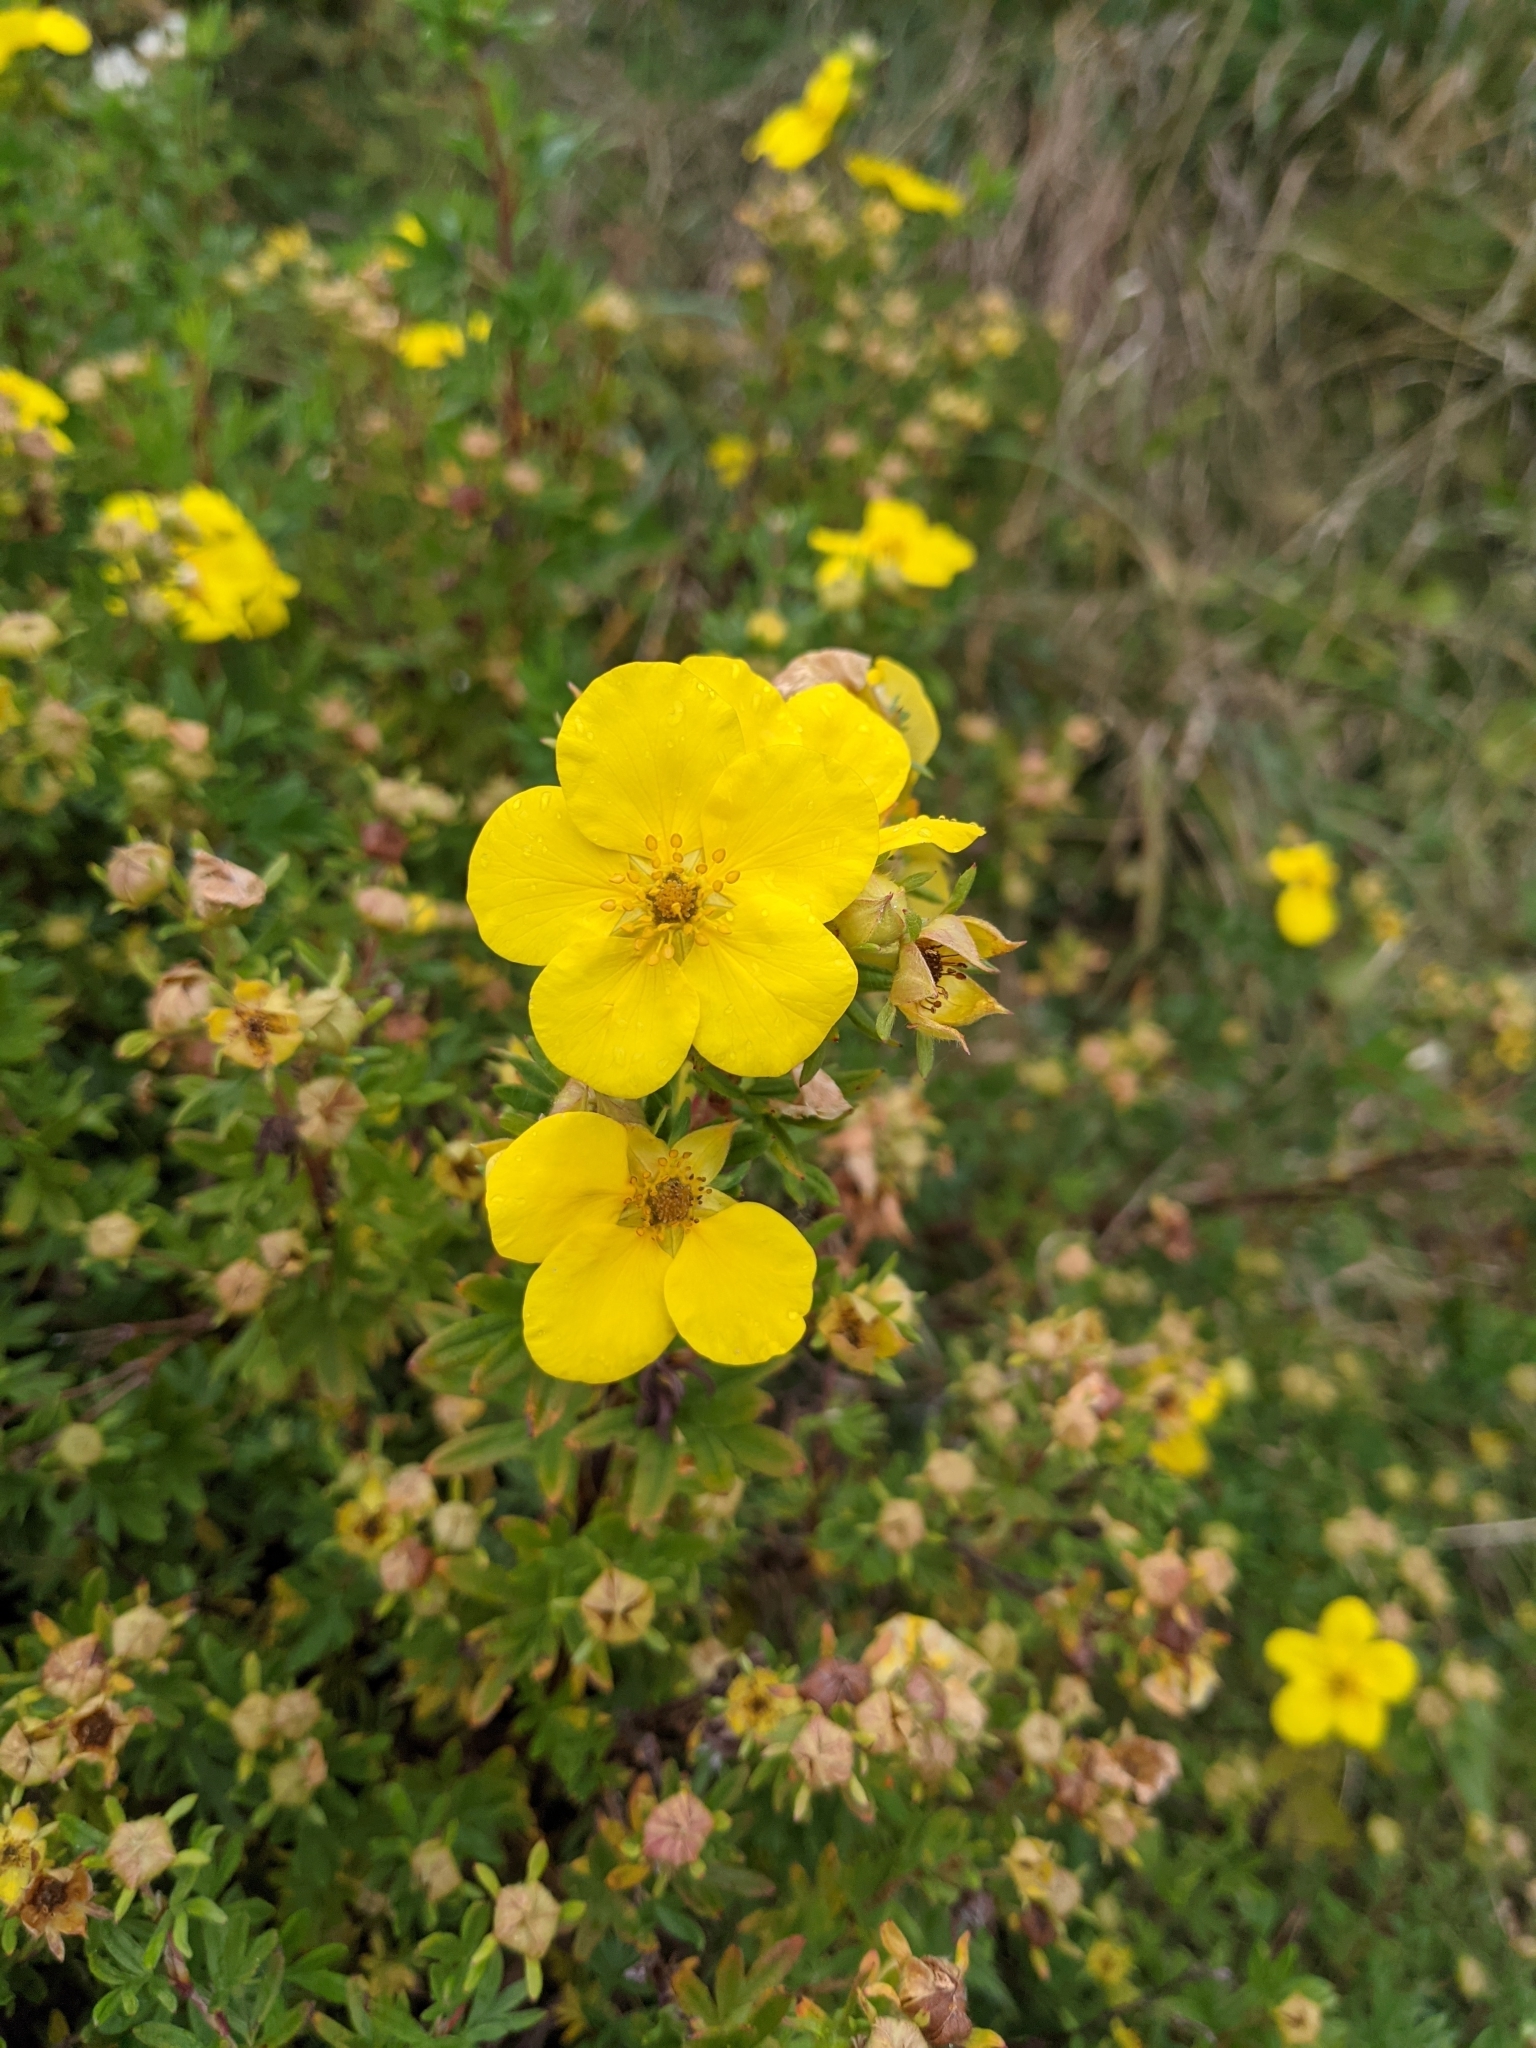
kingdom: Plantae
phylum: Tracheophyta
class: Magnoliopsida
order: Rosales
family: Rosaceae
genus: Dasiphora
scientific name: Dasiphora fruticosa
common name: Shrubby cinquefoil
